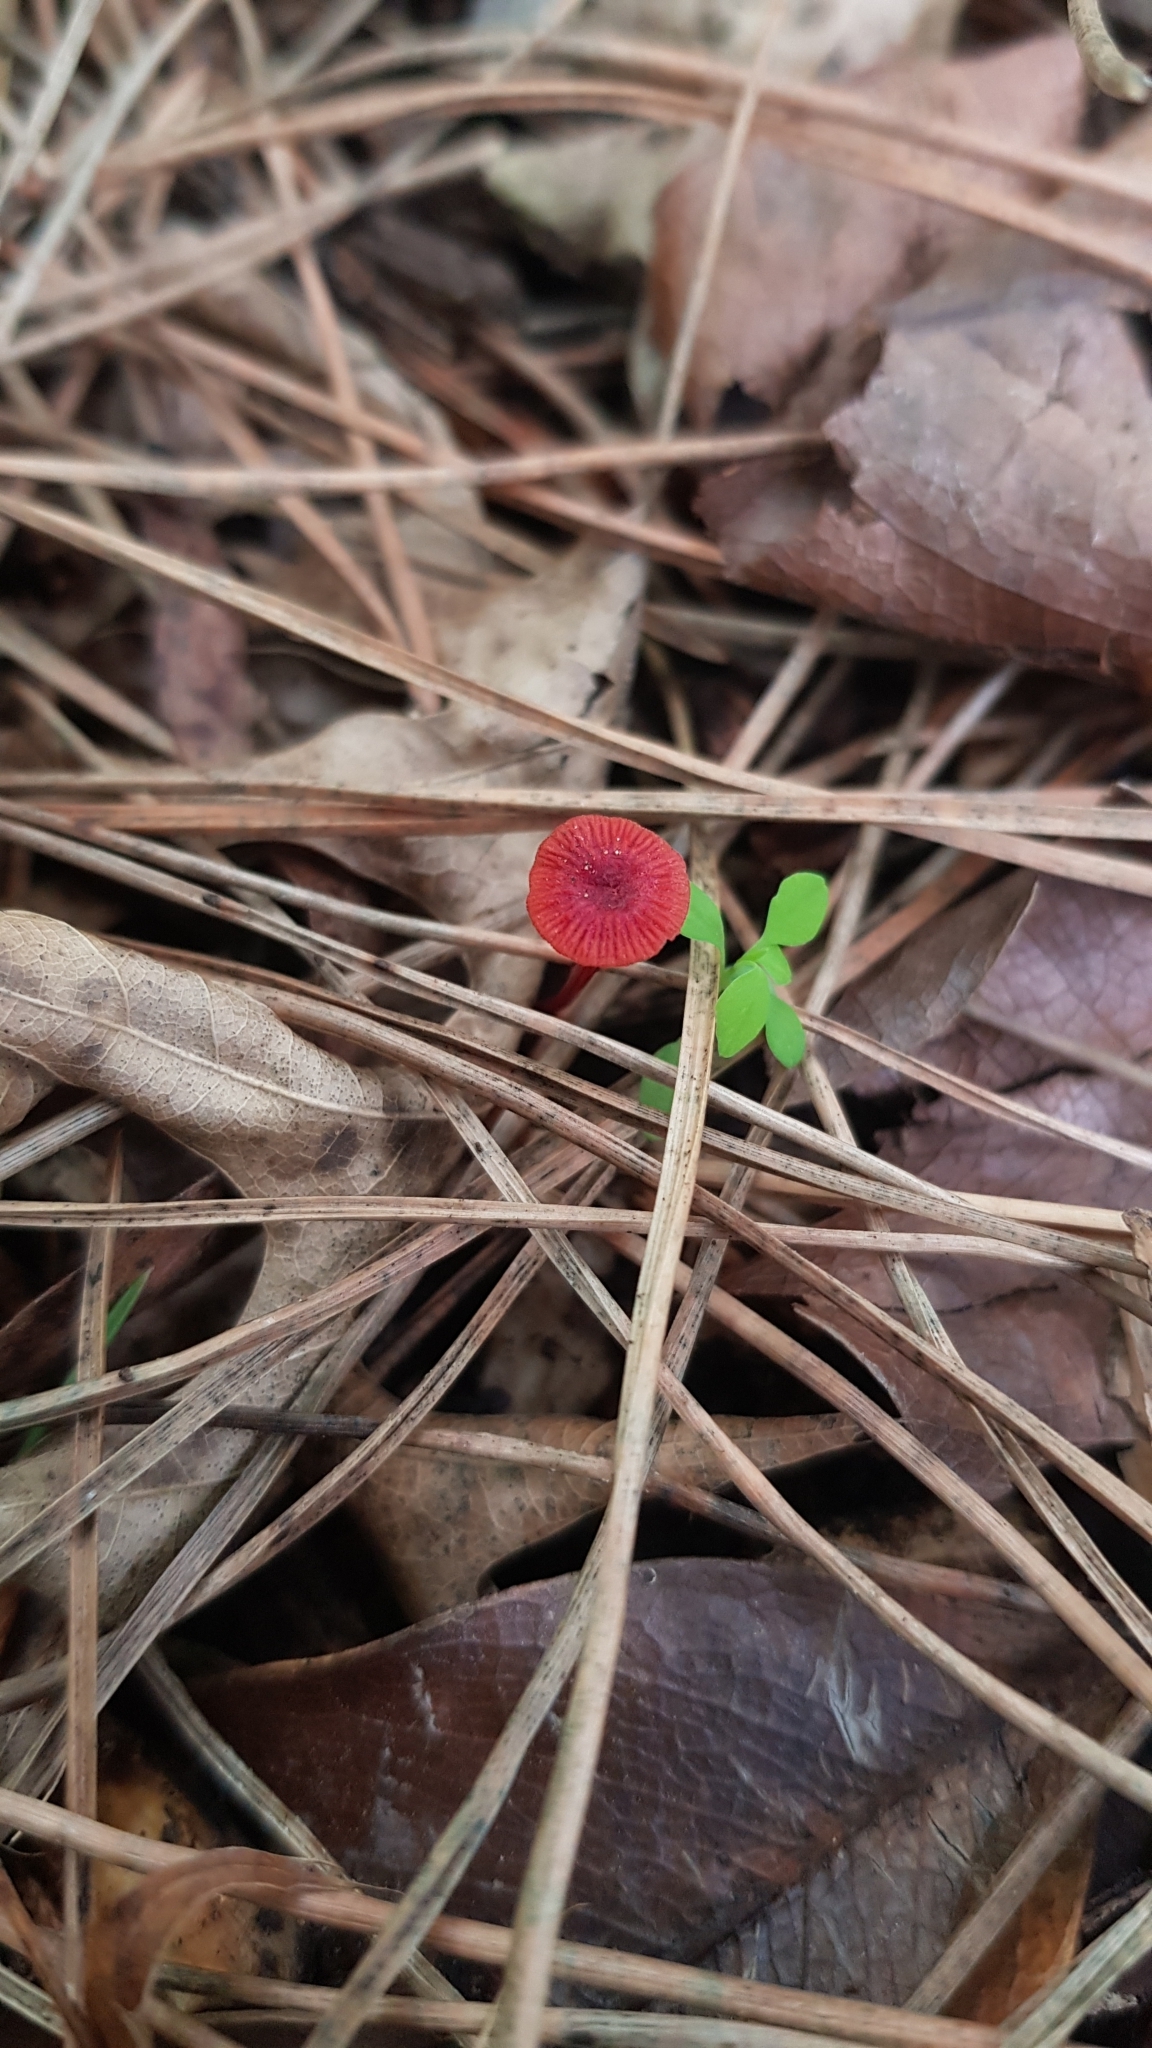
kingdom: Fungi
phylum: Basidiomycota
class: Agaricomycetes
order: Agaricales
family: Mycenaceae
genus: Cruentomycena
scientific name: Cruentomycena viscidocruenta
